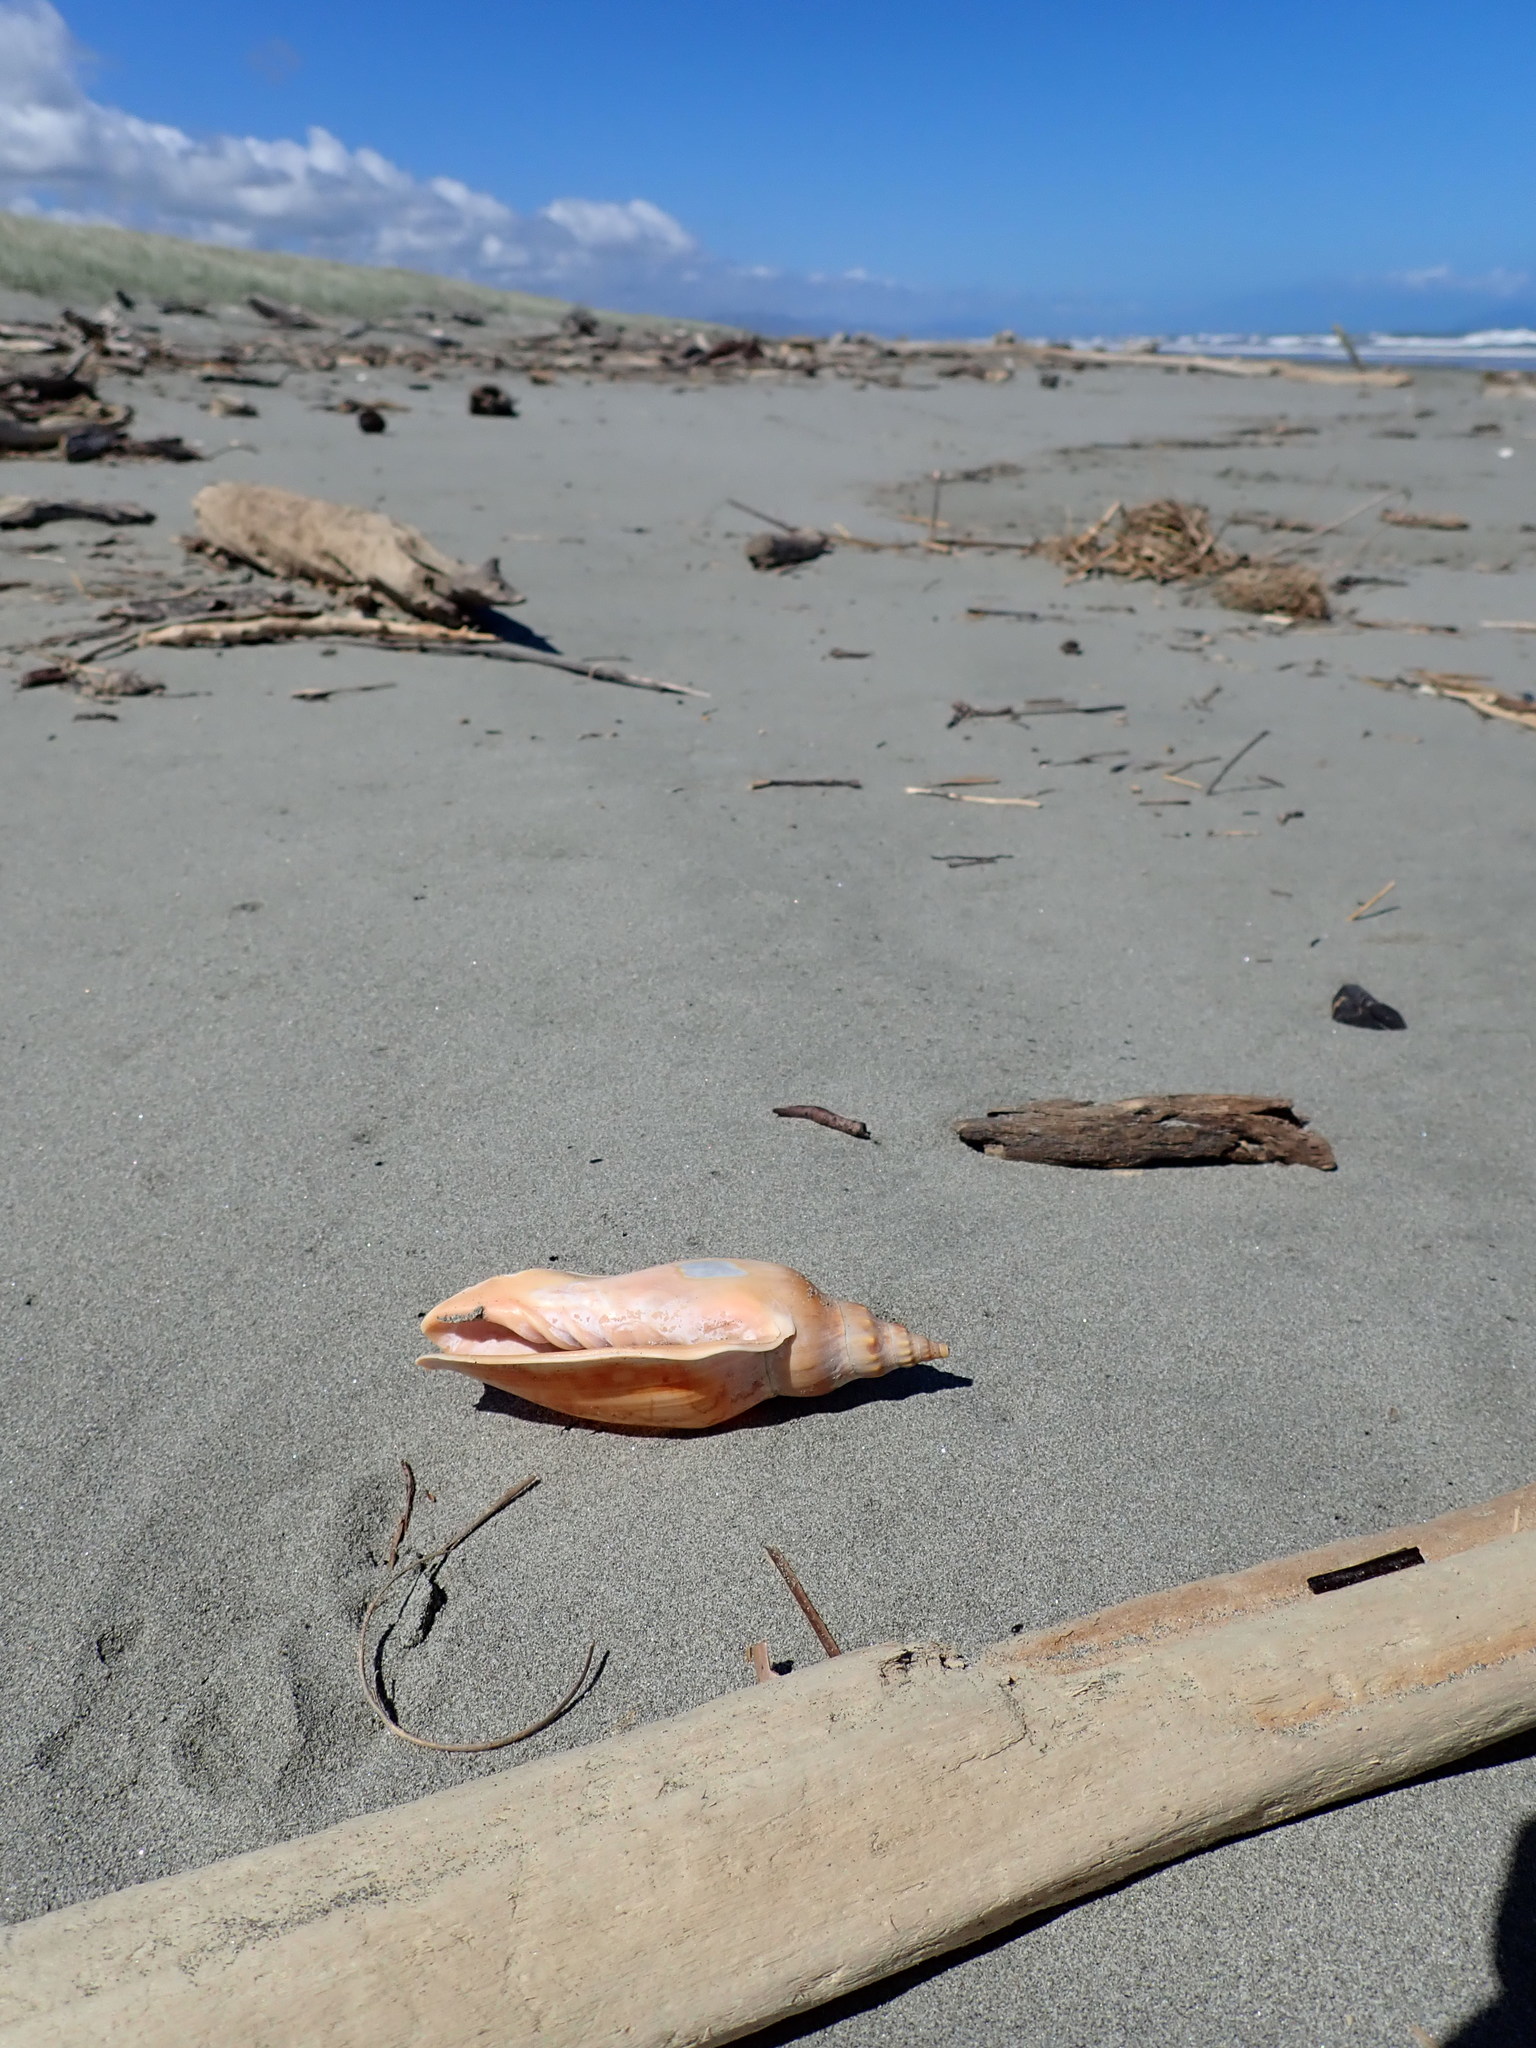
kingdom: Animalia
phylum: Mollusca
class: Gastropoda
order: Neogastropoda
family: Volutidae
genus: Alcithoe
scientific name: Alcithoe arabica
